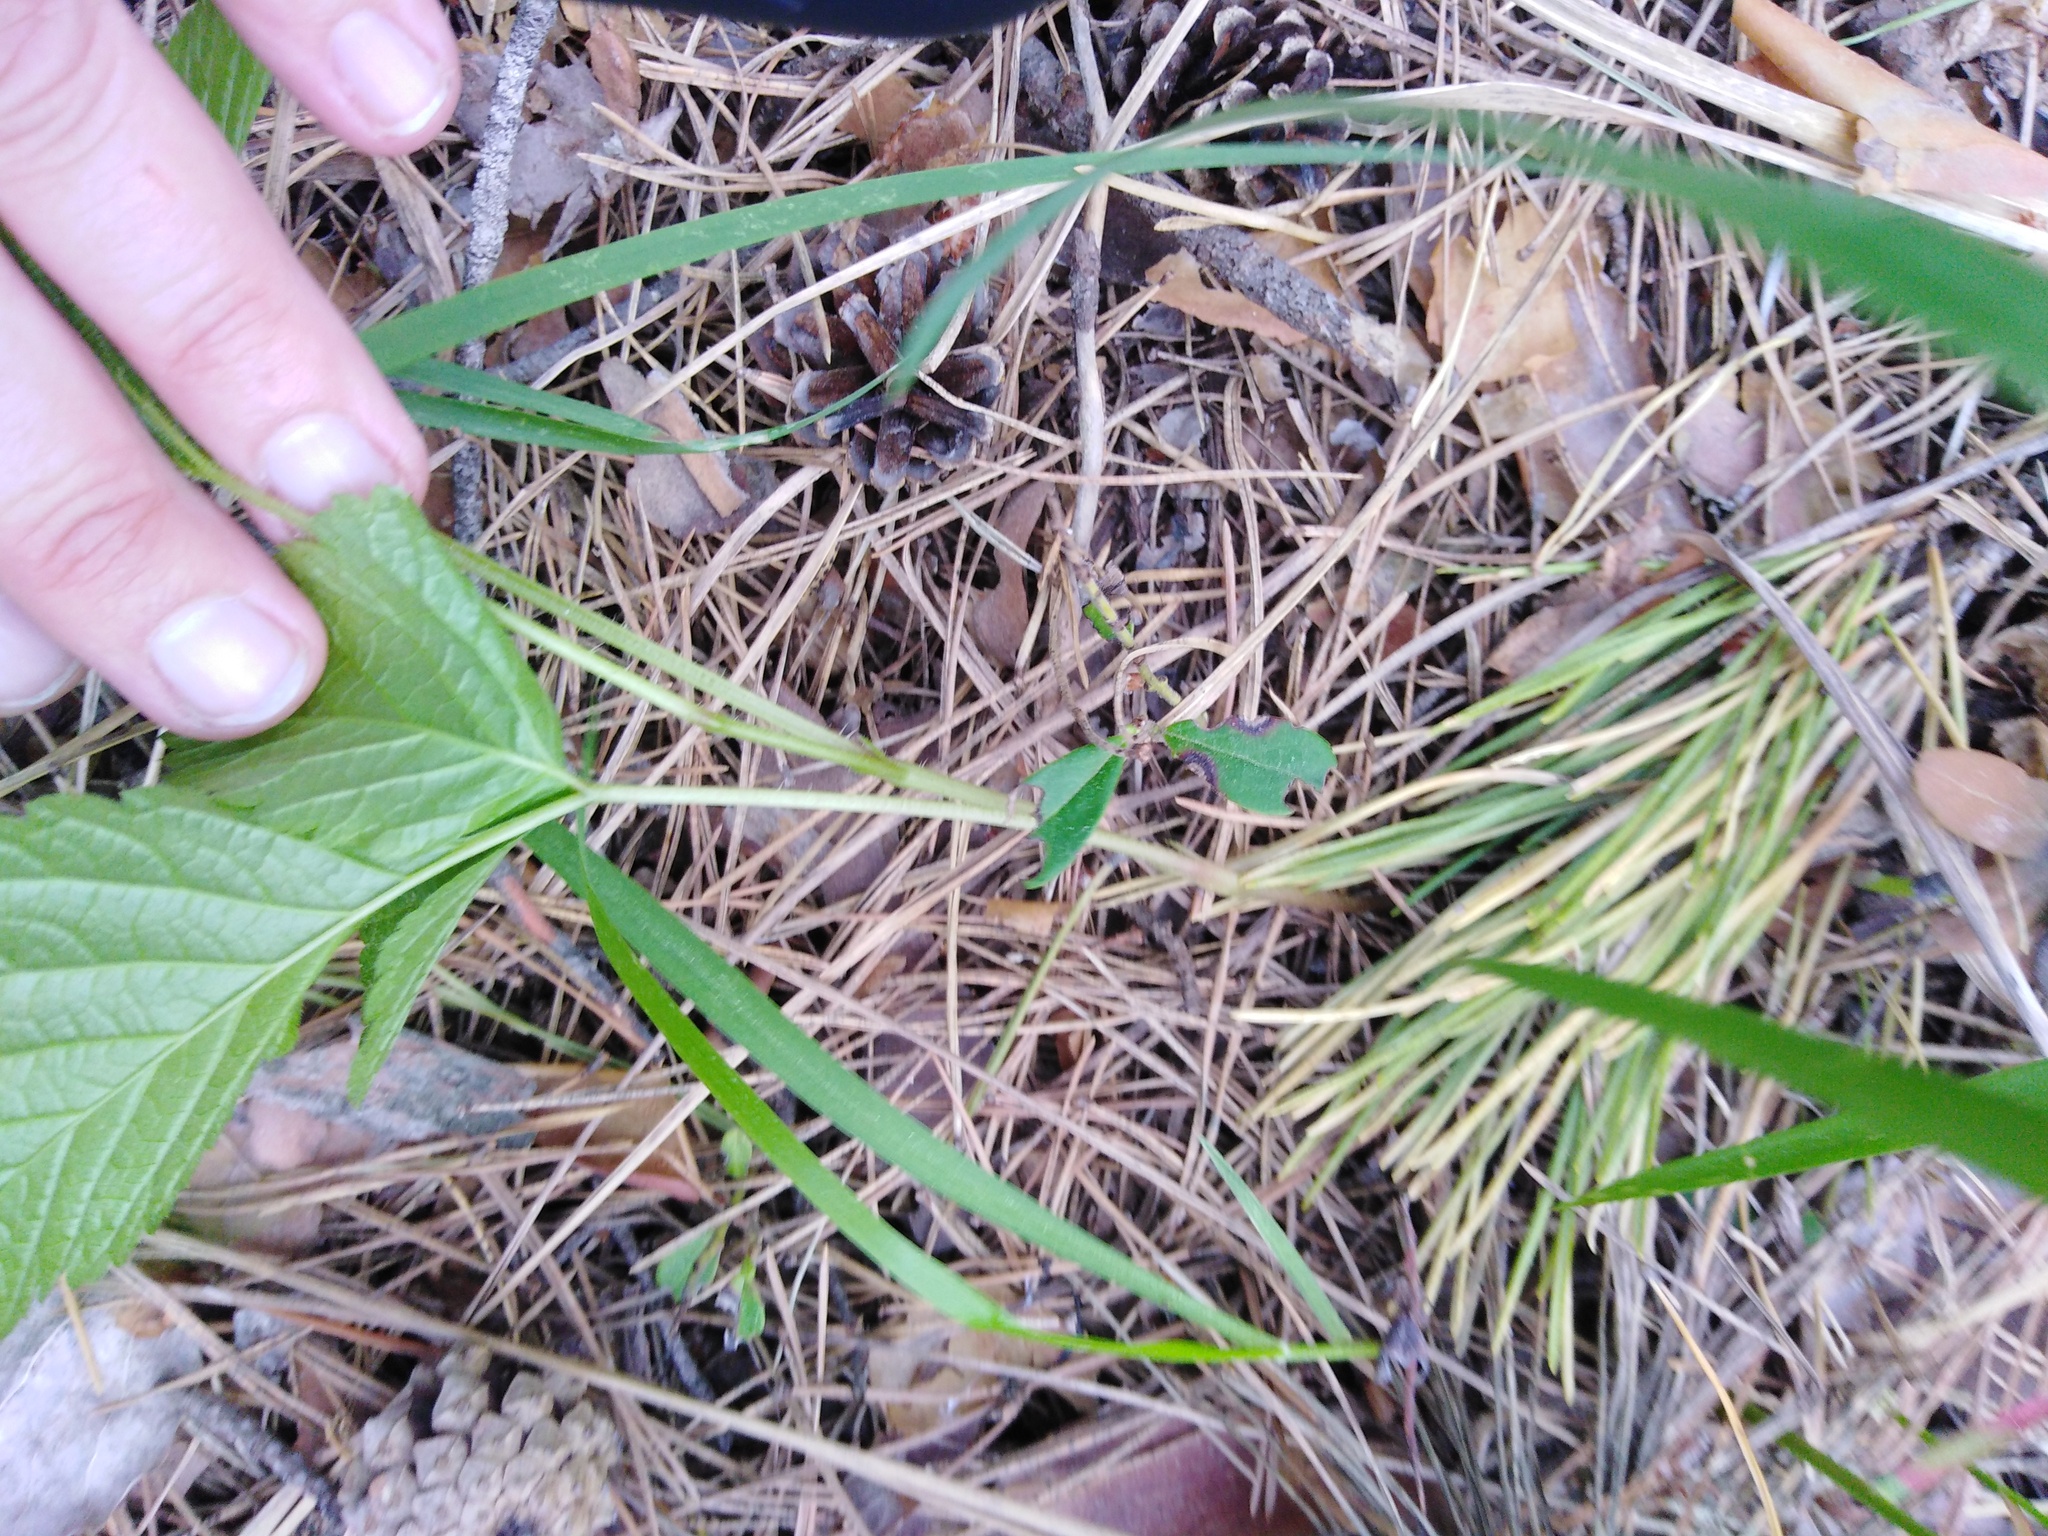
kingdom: Plantae
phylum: Tracheophyta
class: Magnoliopsida
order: Rosales
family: Rosaceae
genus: Rubus
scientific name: Rubus saxatilis
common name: Stone bramble
